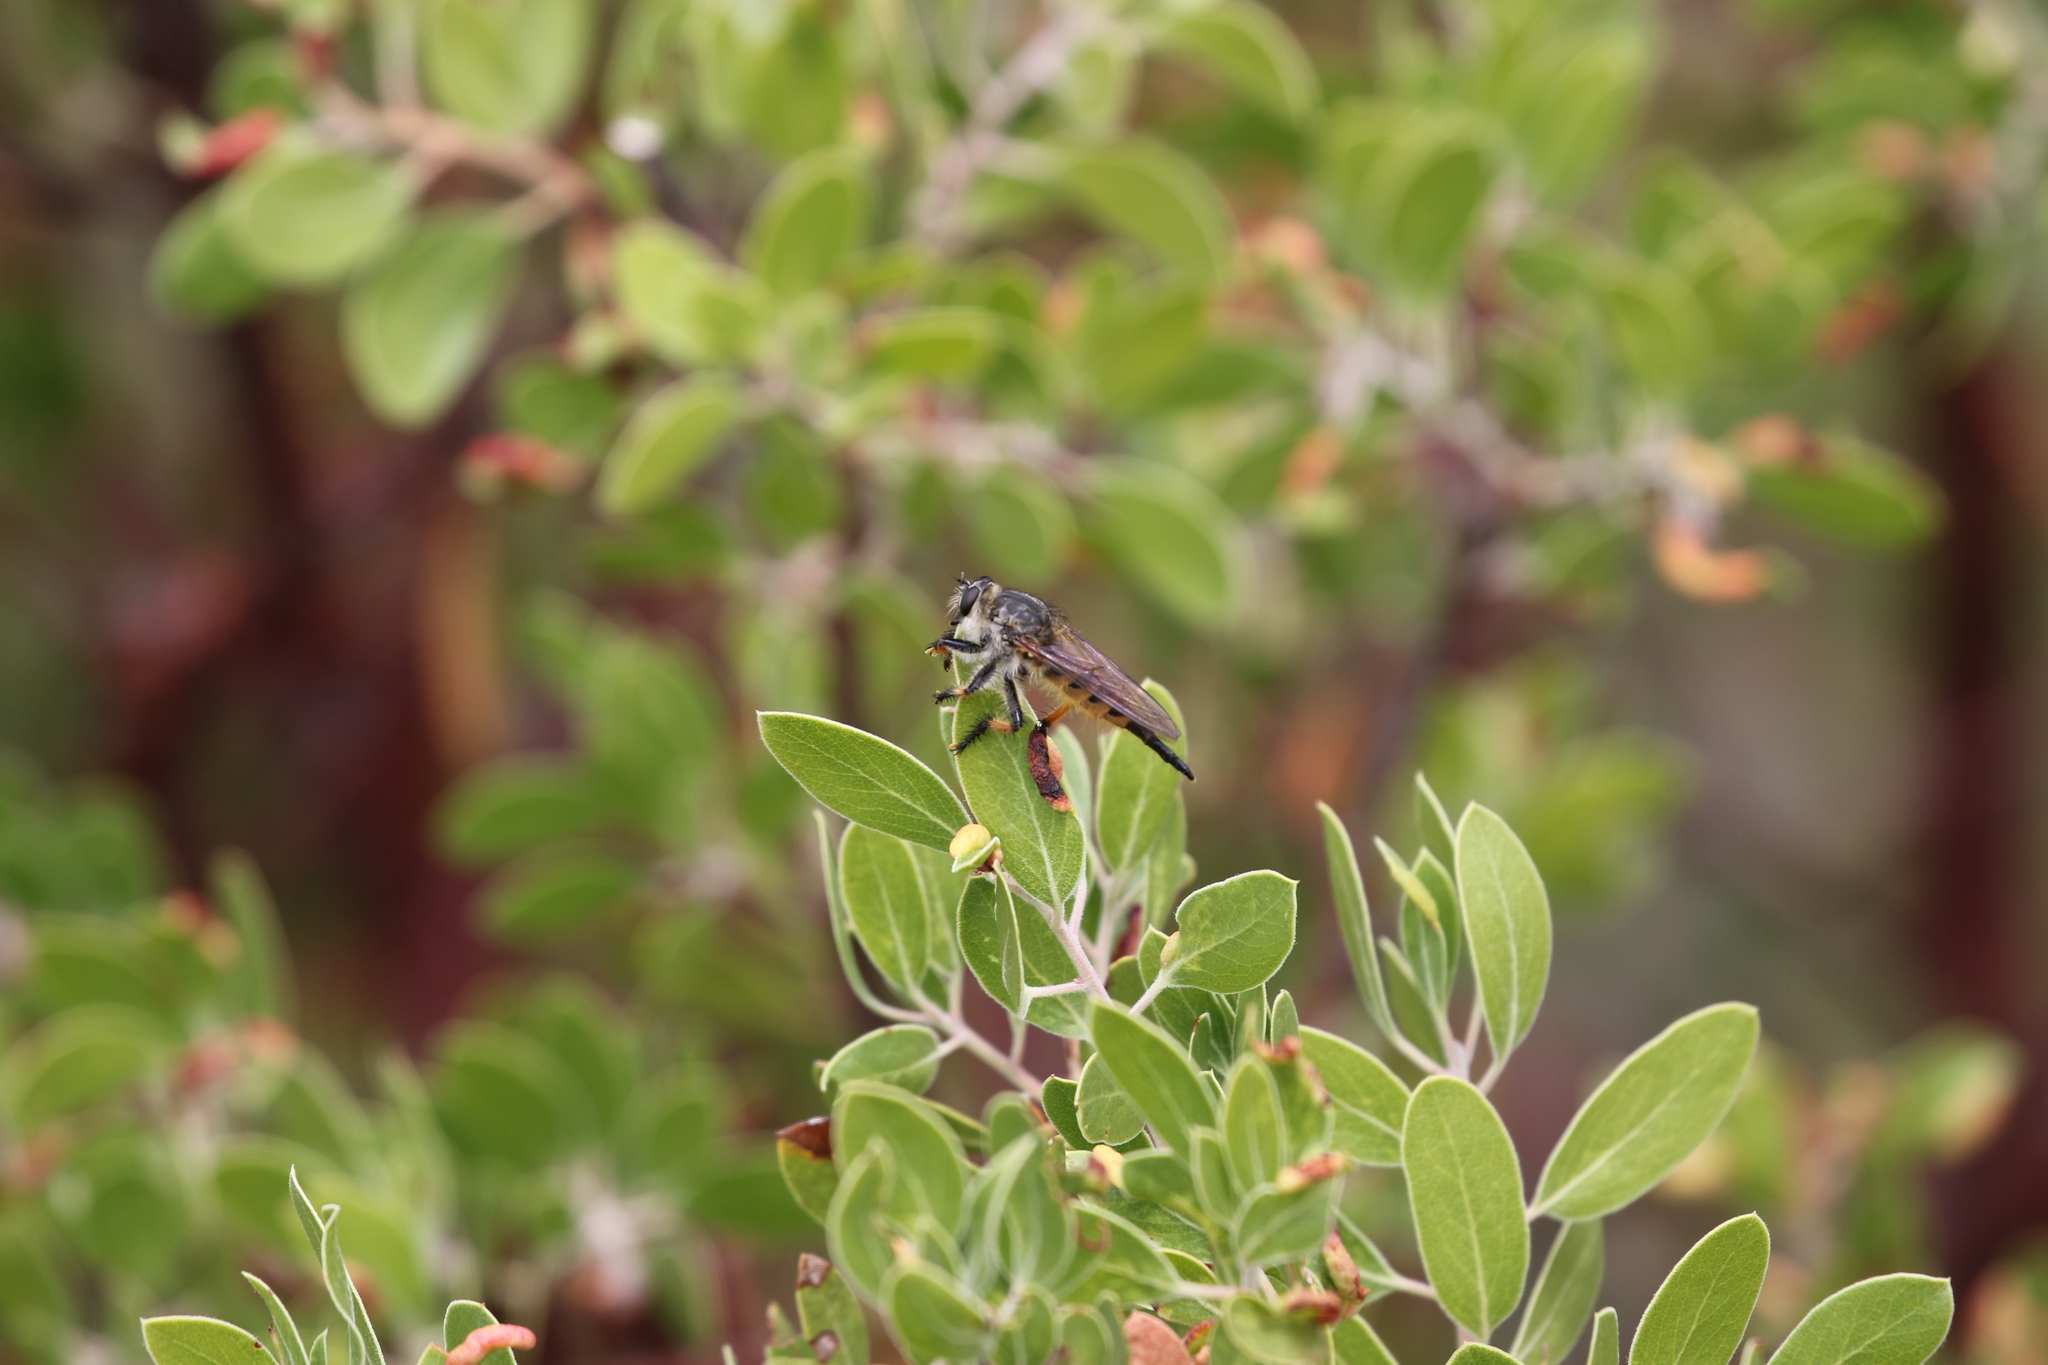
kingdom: Animalia
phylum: Arthropoda
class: Insecta
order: Diptera
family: Asilidae
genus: Promachus
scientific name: Promachus sackeni
